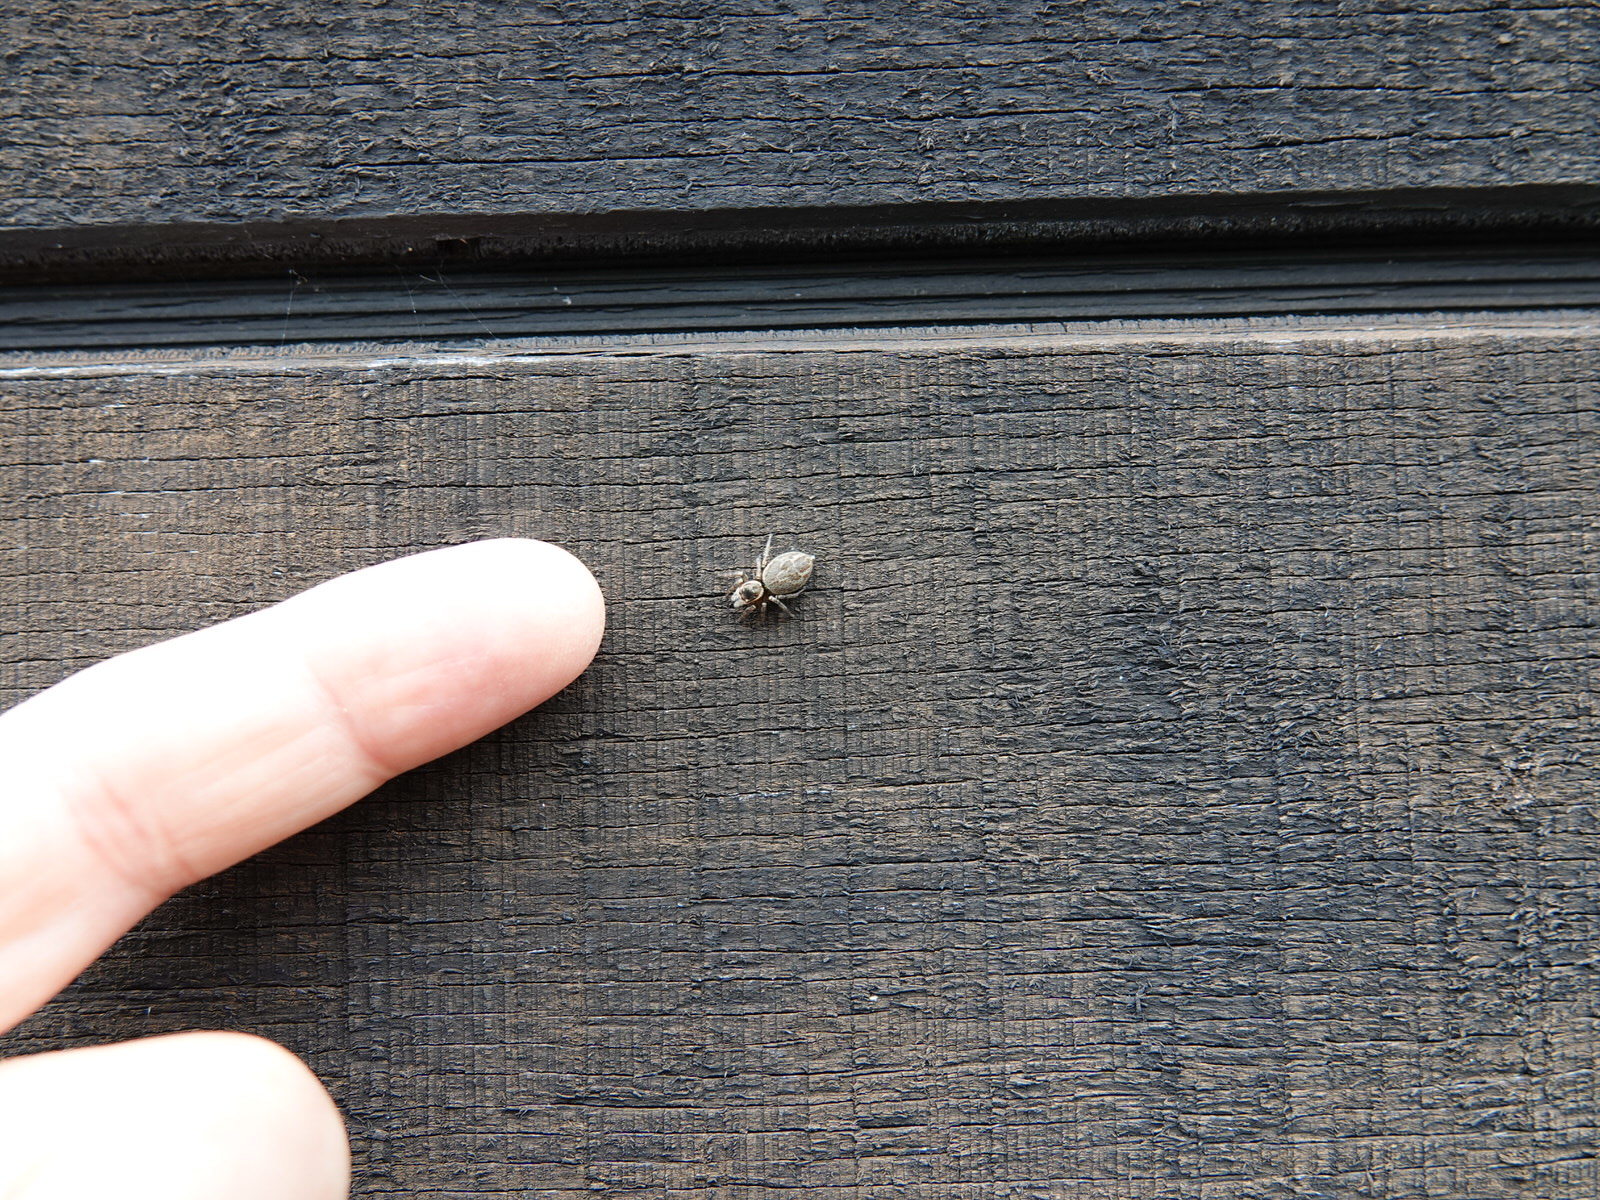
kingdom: Animalia
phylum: Arthropoda
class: Arachnida
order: Araneae
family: Salticidae
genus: Maratus
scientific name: Maratus griseus
